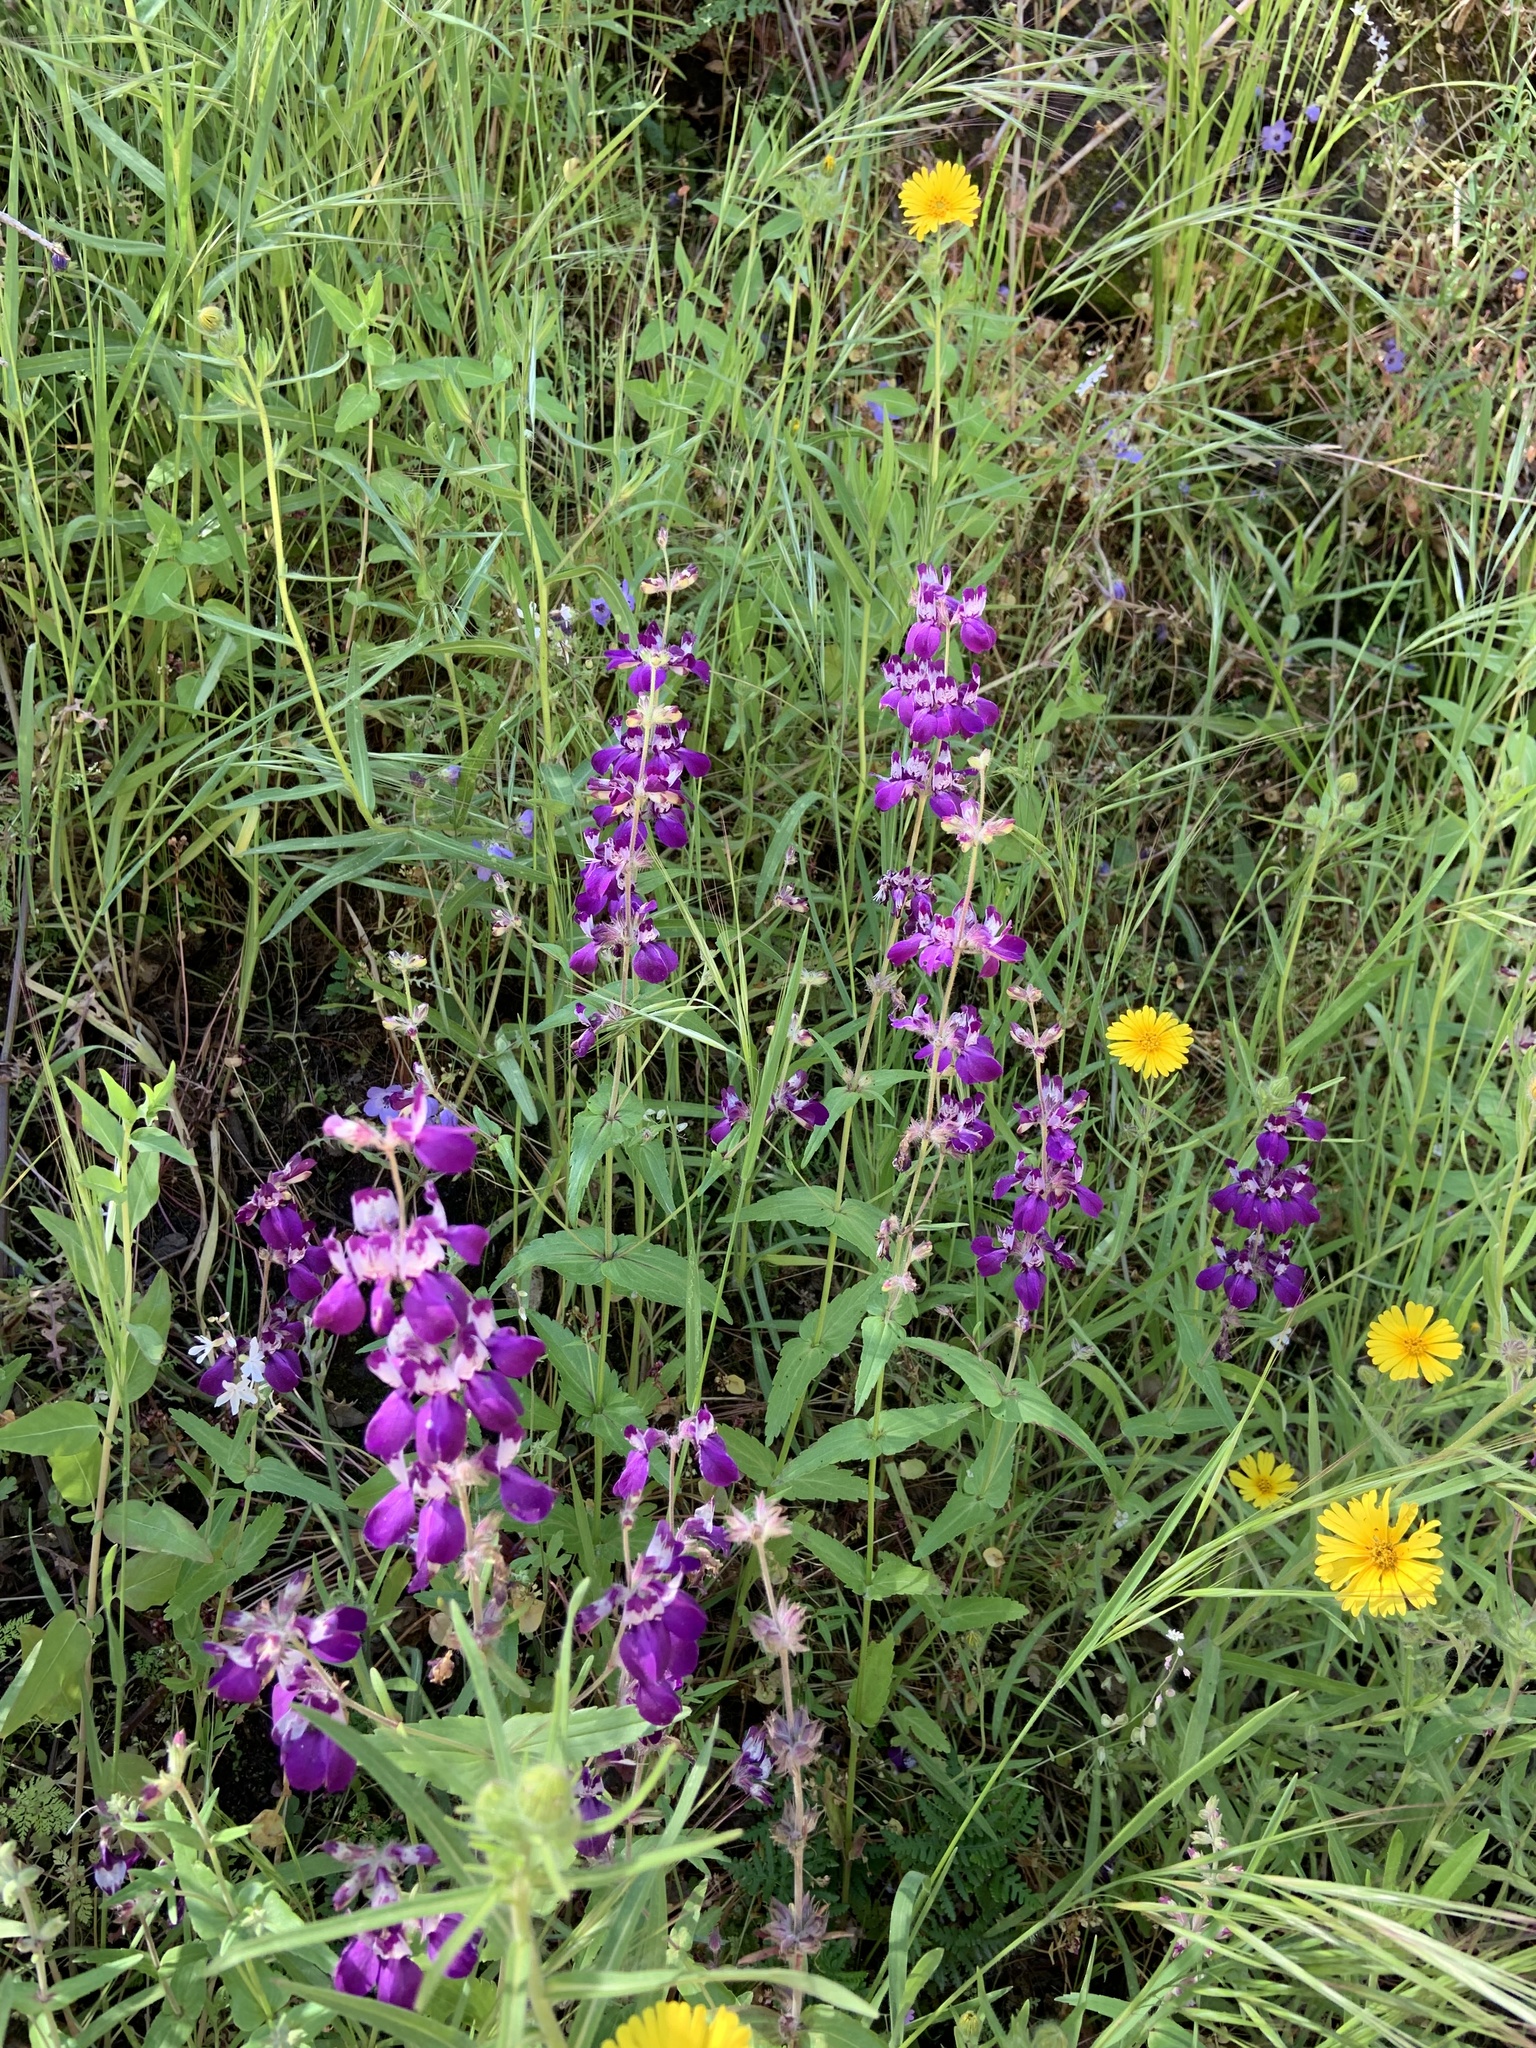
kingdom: Plantae
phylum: Tracheophyta
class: Magnoliopsida
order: Lamiales
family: Plantaginaceae
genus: Collinsia
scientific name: Collinsia heterophylla
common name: Chinese-houses
